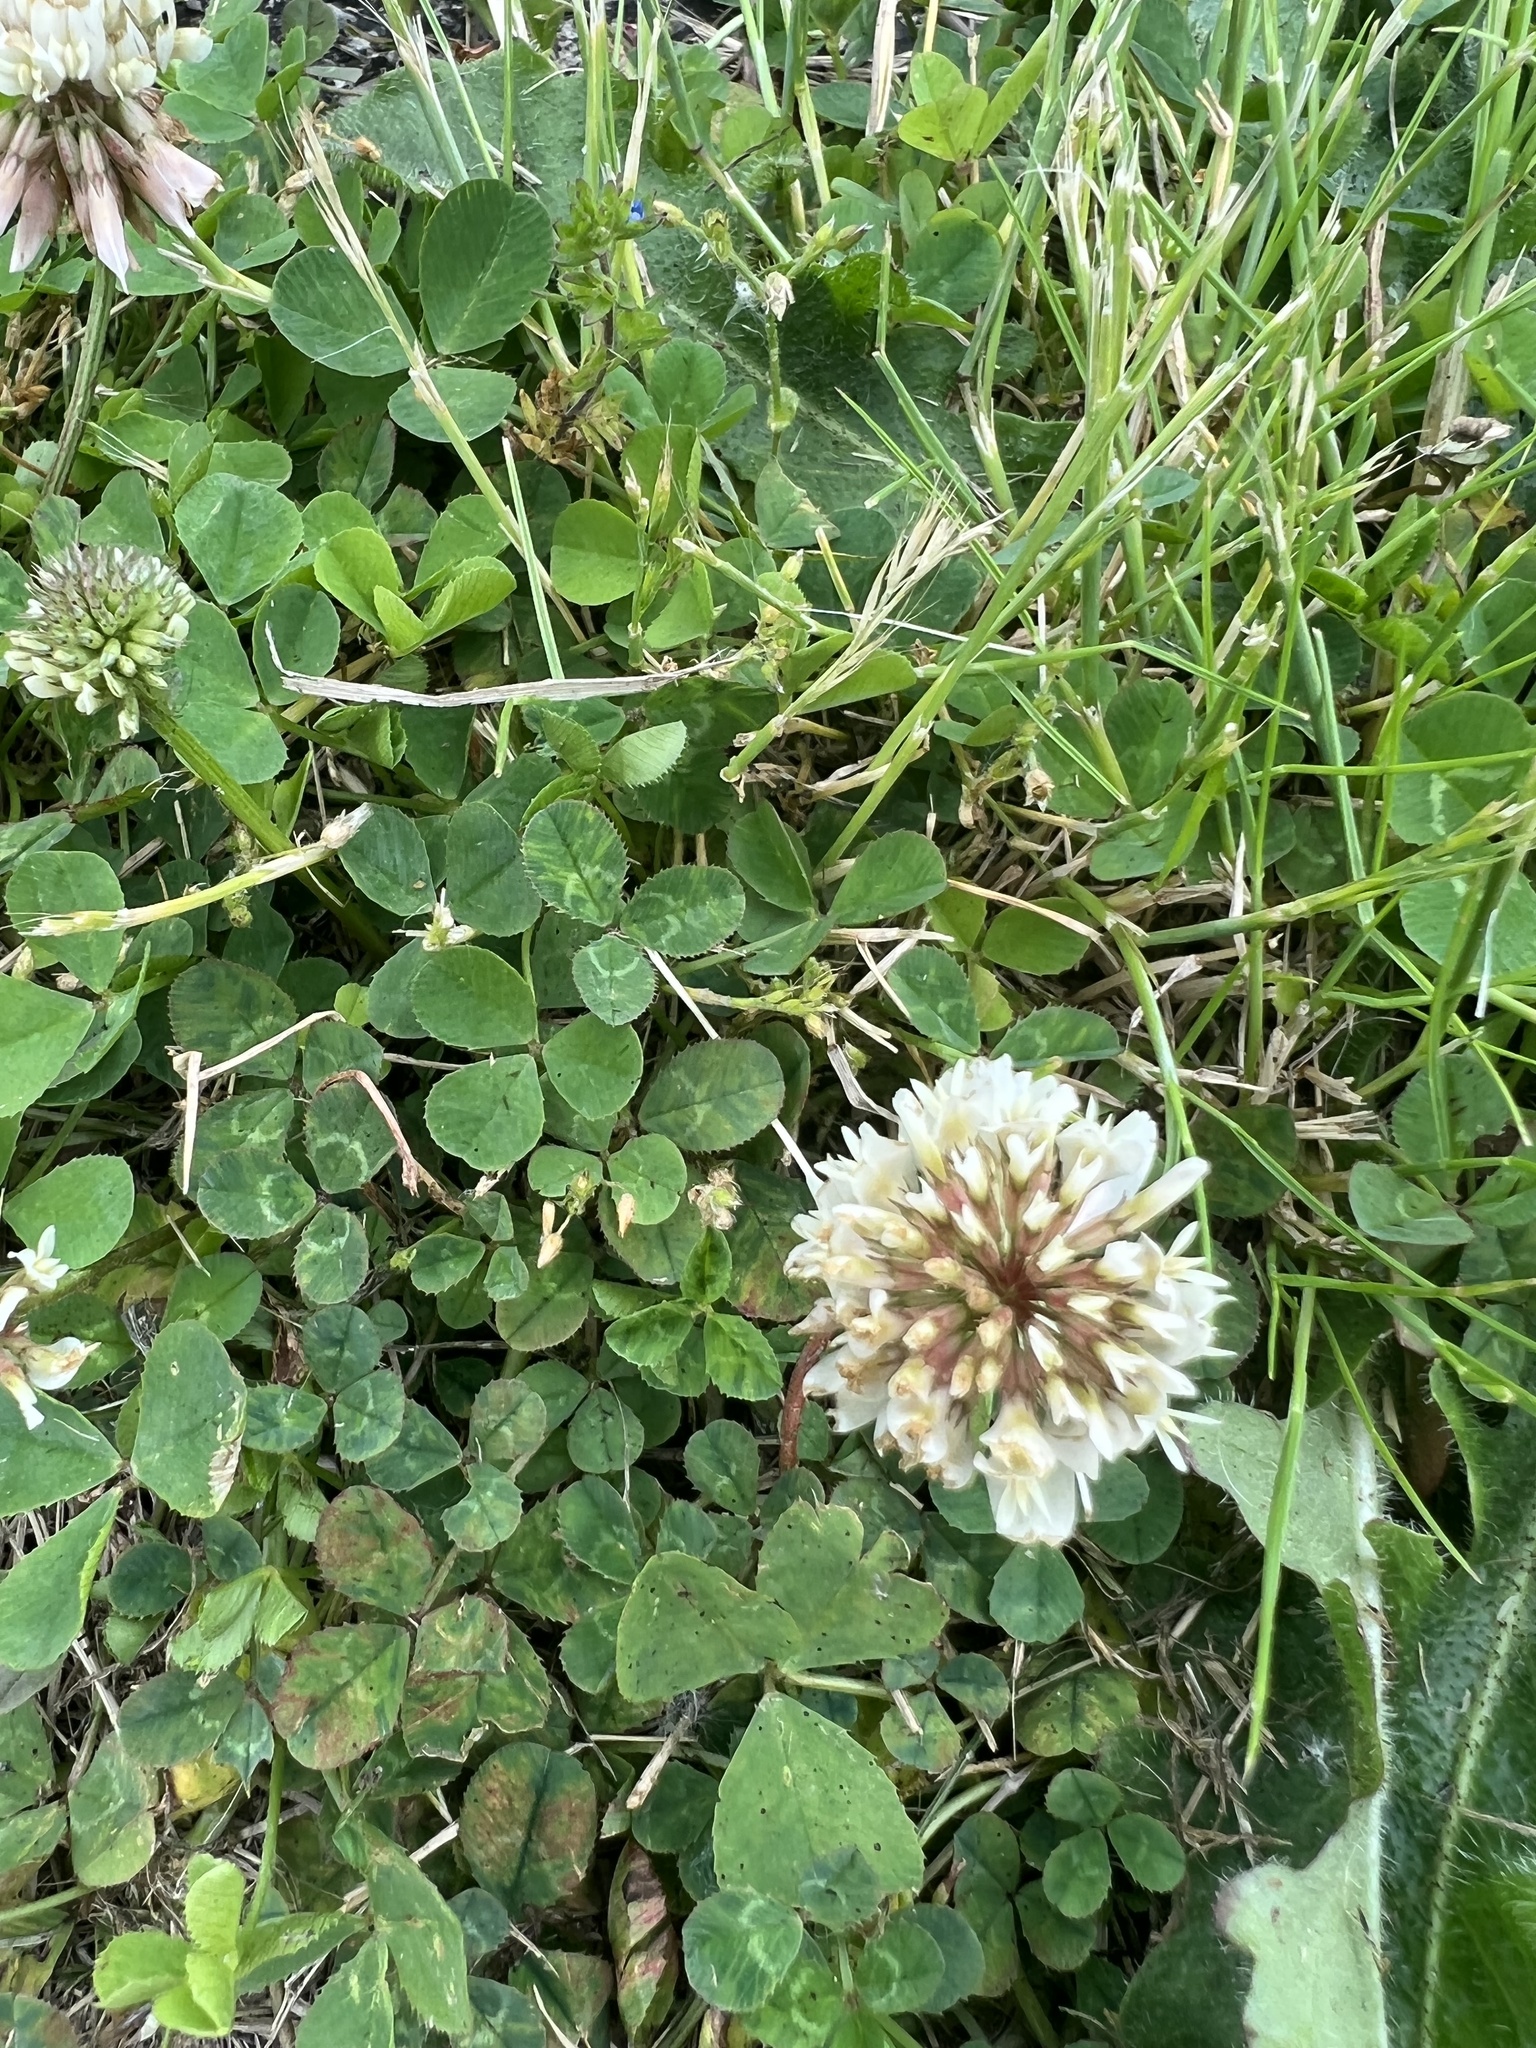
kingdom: Plantae
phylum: Tracheophyta
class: Magnoliopsida
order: Fabales
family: Fabaceae
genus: Trifolium
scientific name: Trifolium repens
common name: White clover
